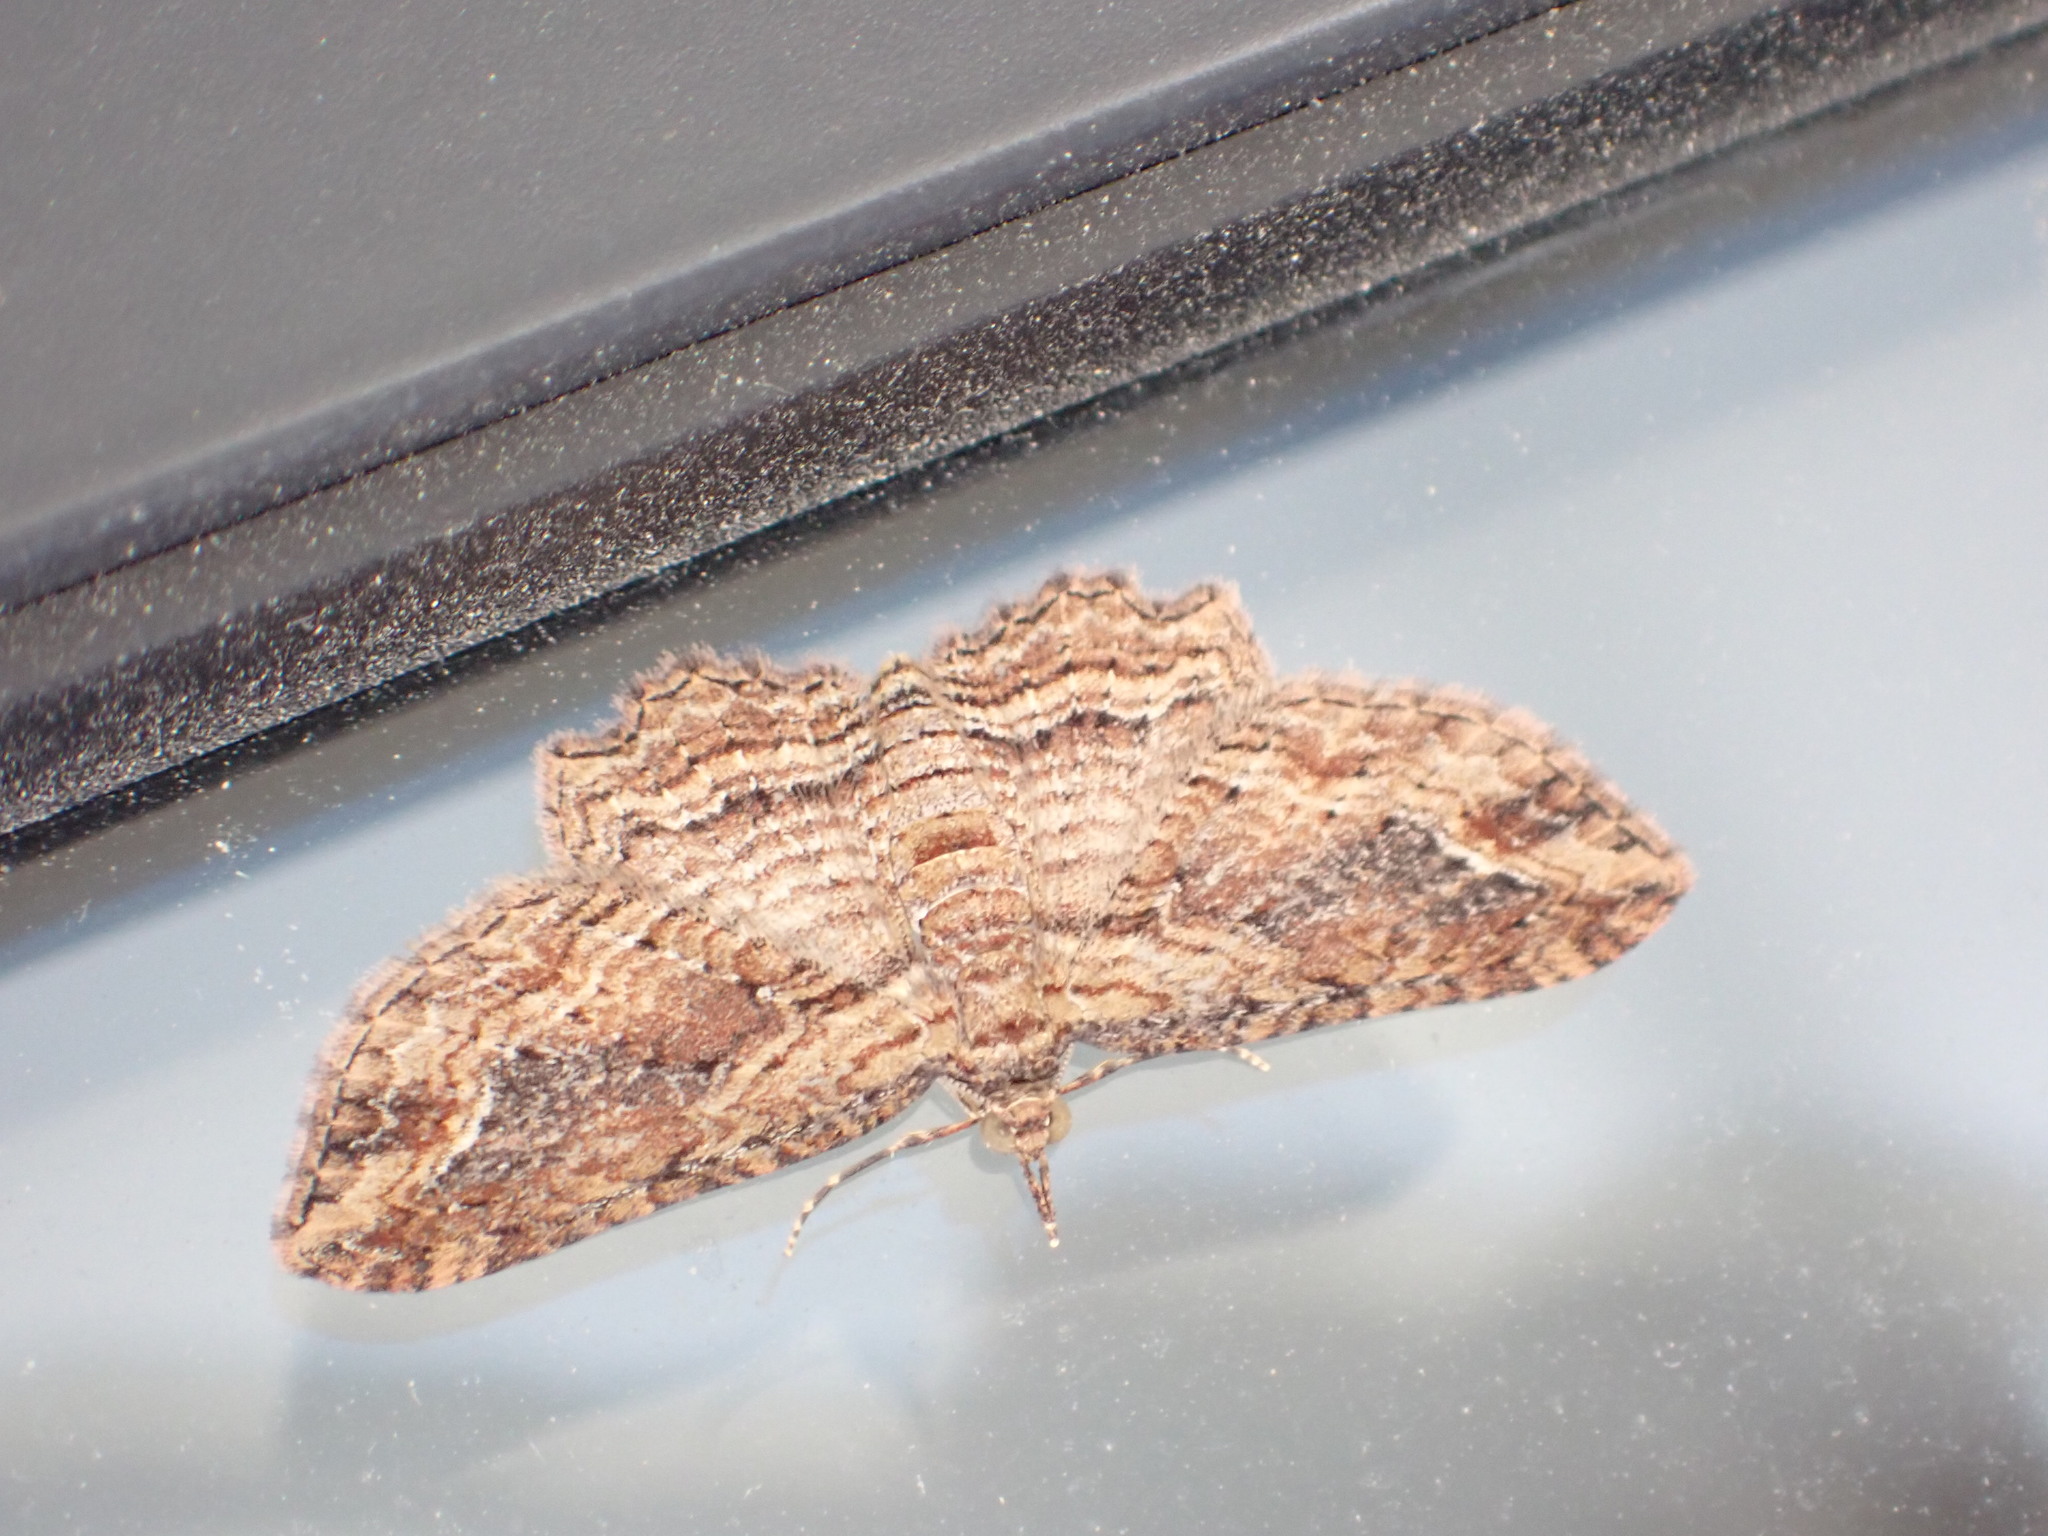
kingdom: Animalia
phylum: Arthropoda
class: Insecta
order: Lepidoptera
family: Geometridae
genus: Chloroclystis
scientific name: Chloroclystis filata
